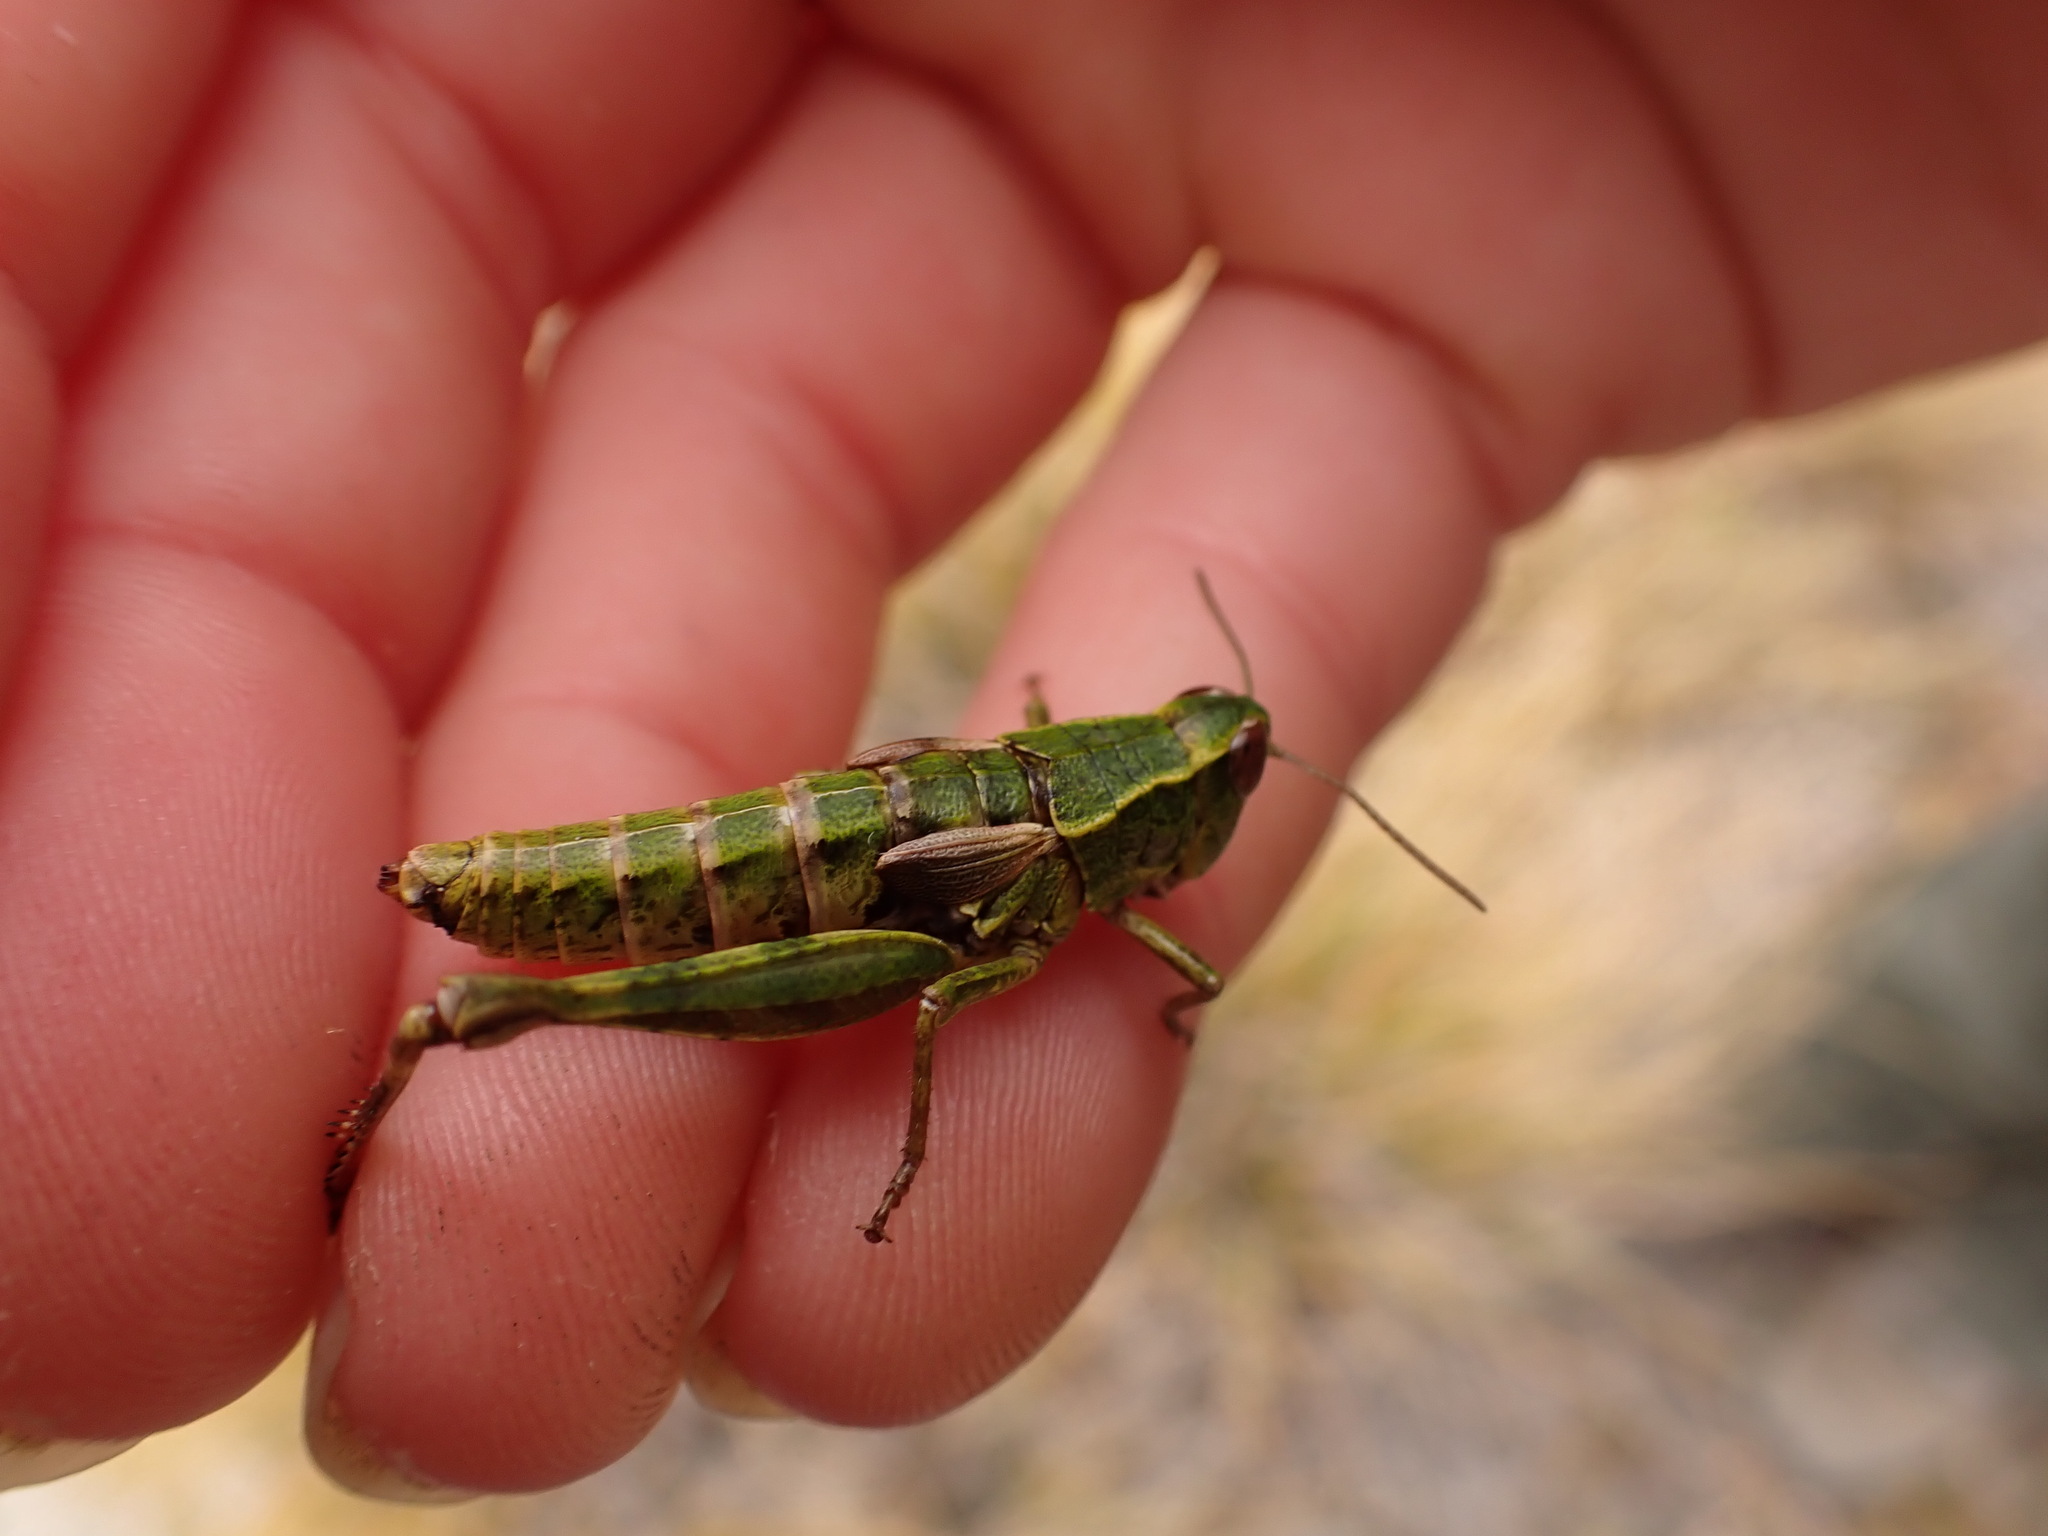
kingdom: Animalia
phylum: Arthropoda
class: Insecta
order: Orthoptera
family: Acrididae
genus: Sigaus
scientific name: Sigaus australis
